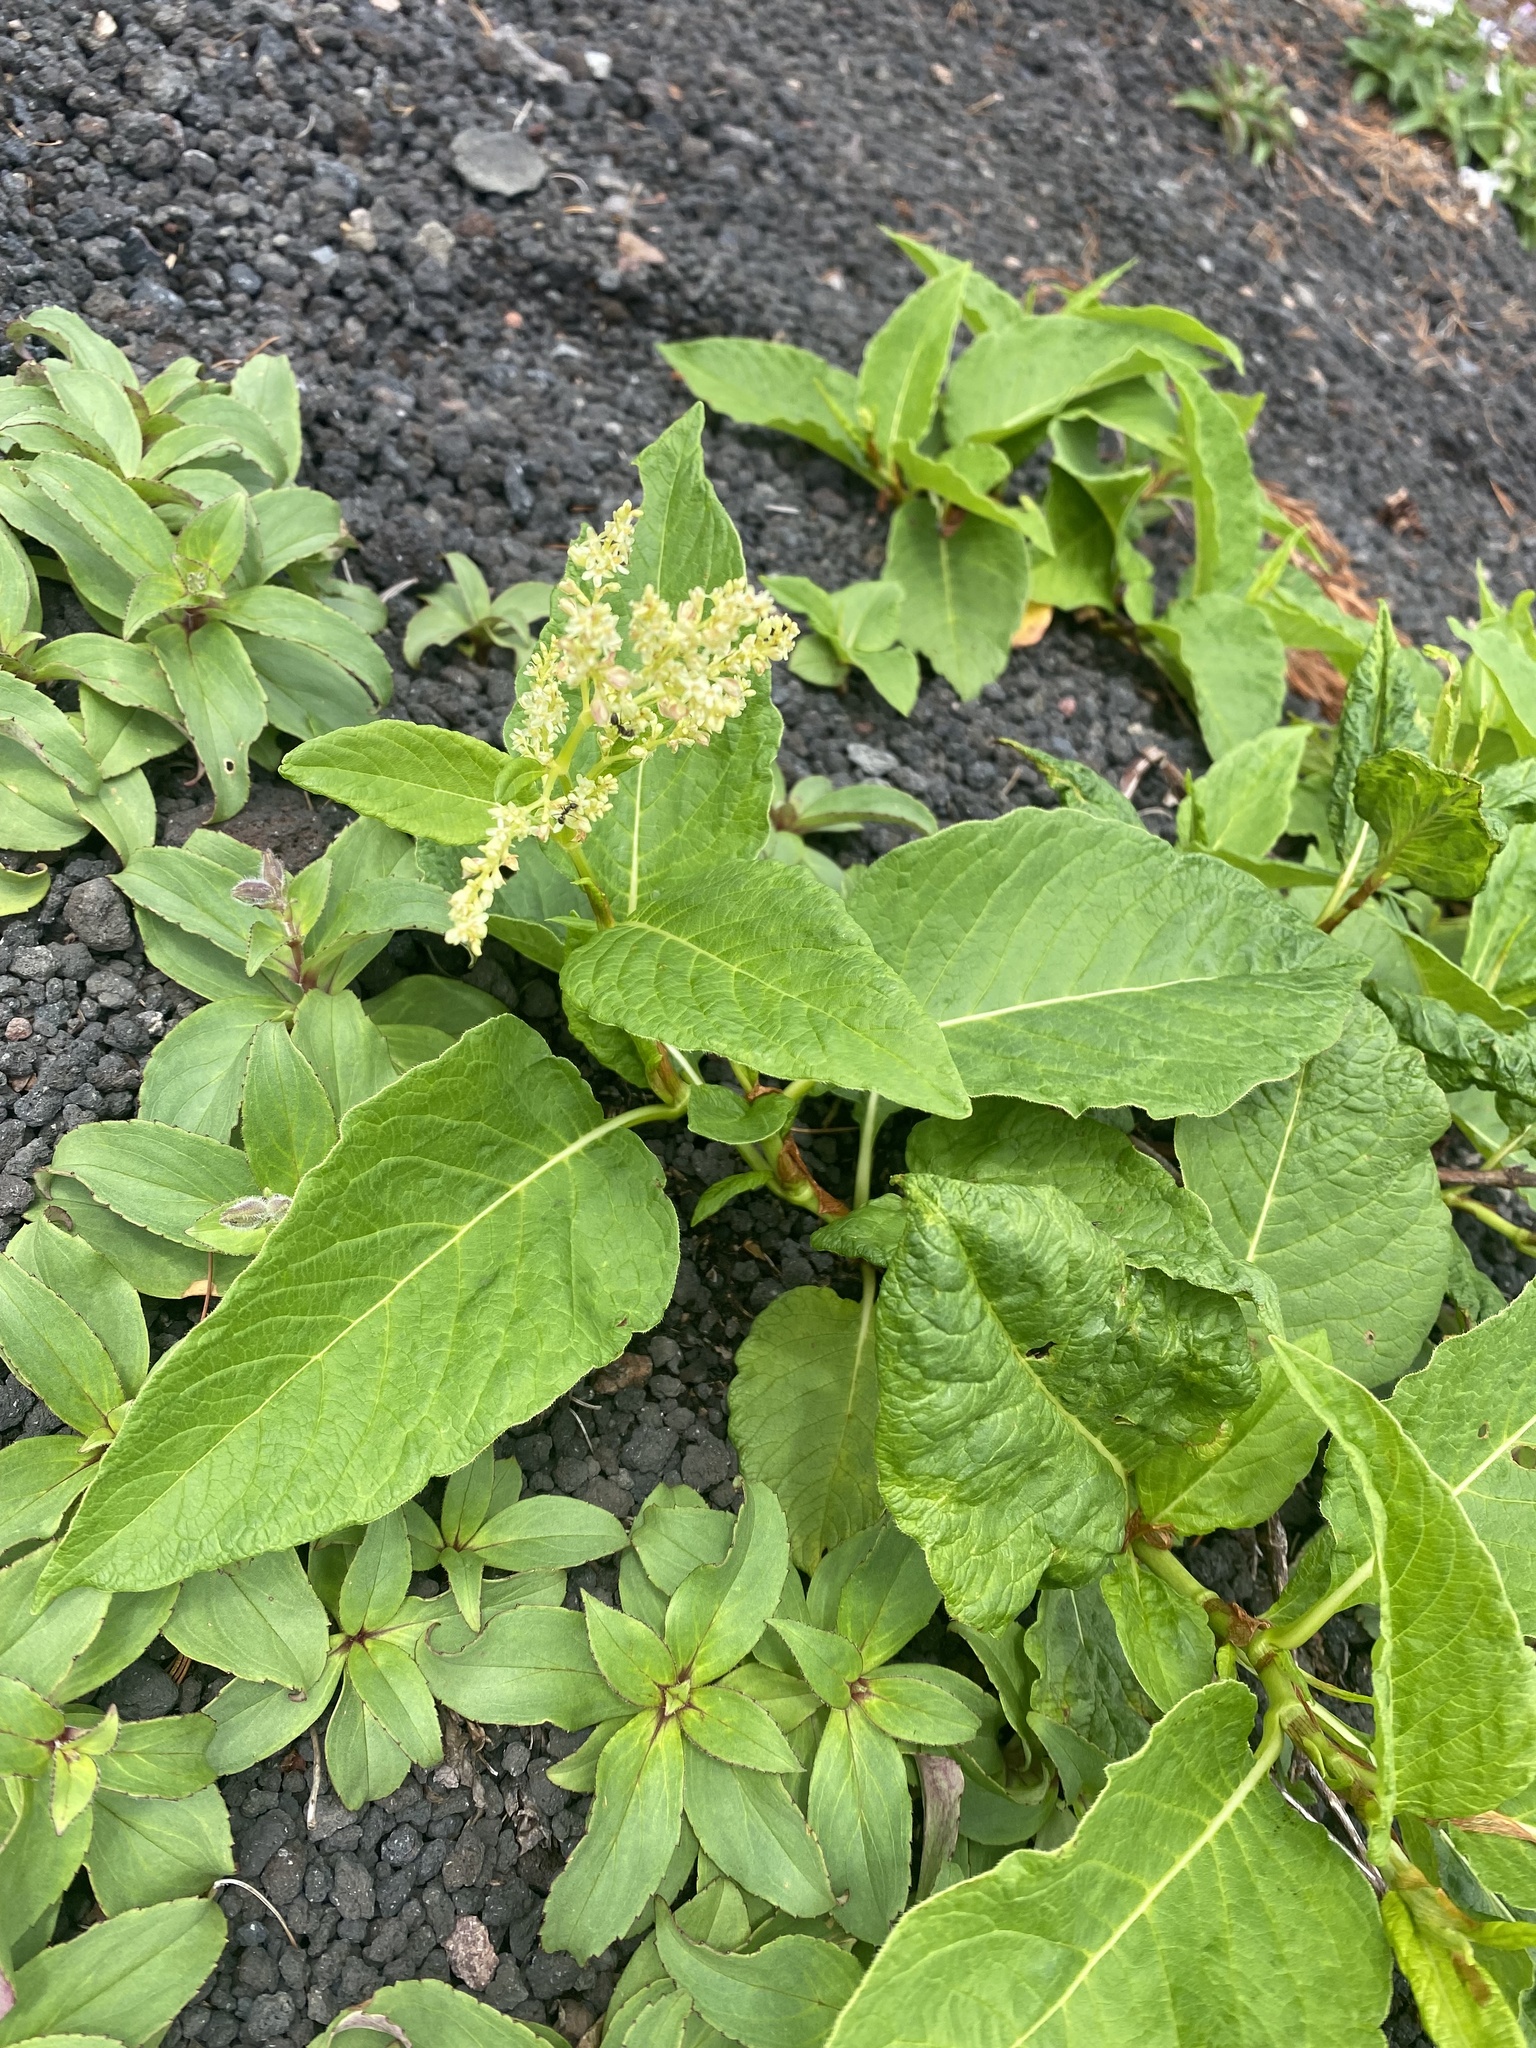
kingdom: Plantae
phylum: Tracheophyta
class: Magnoliopsida
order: Caryophyllales
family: Polygonaceae
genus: Koenigia
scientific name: Koenigia weyrichii
